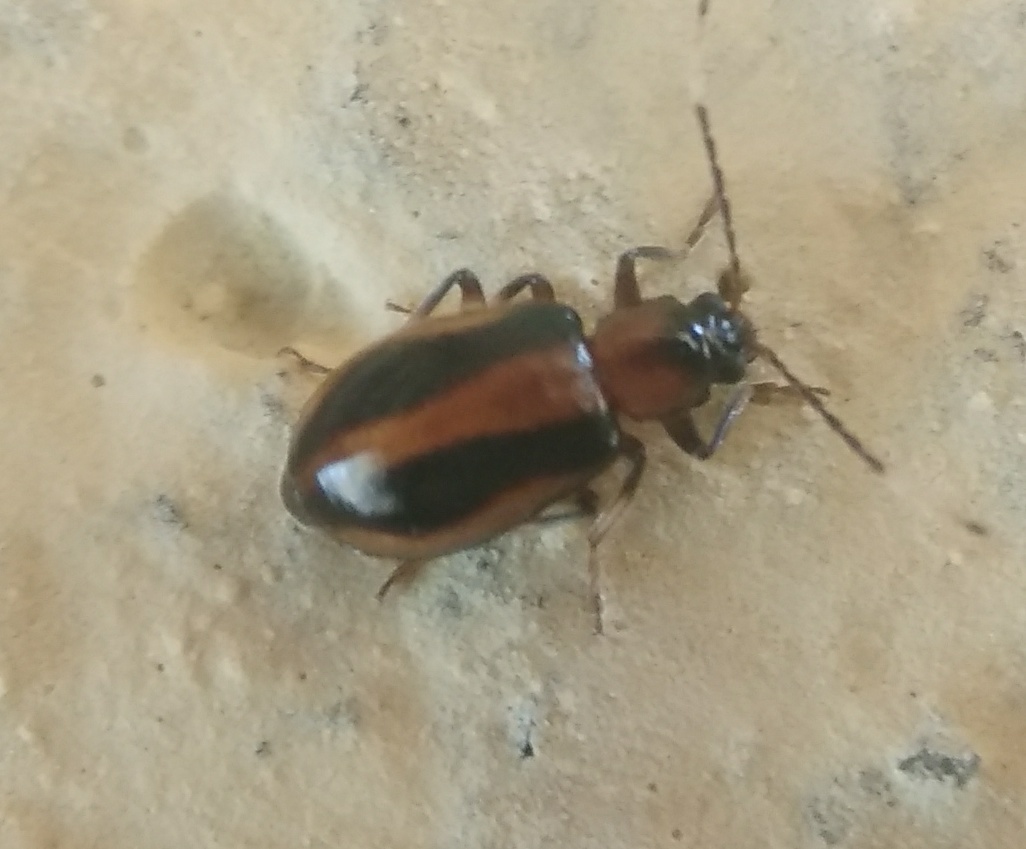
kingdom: Animalia
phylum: Arthropoda
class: Insecta
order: Coleoptera
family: Chrysomelidae
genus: Medythia
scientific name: Medythia suturalis
